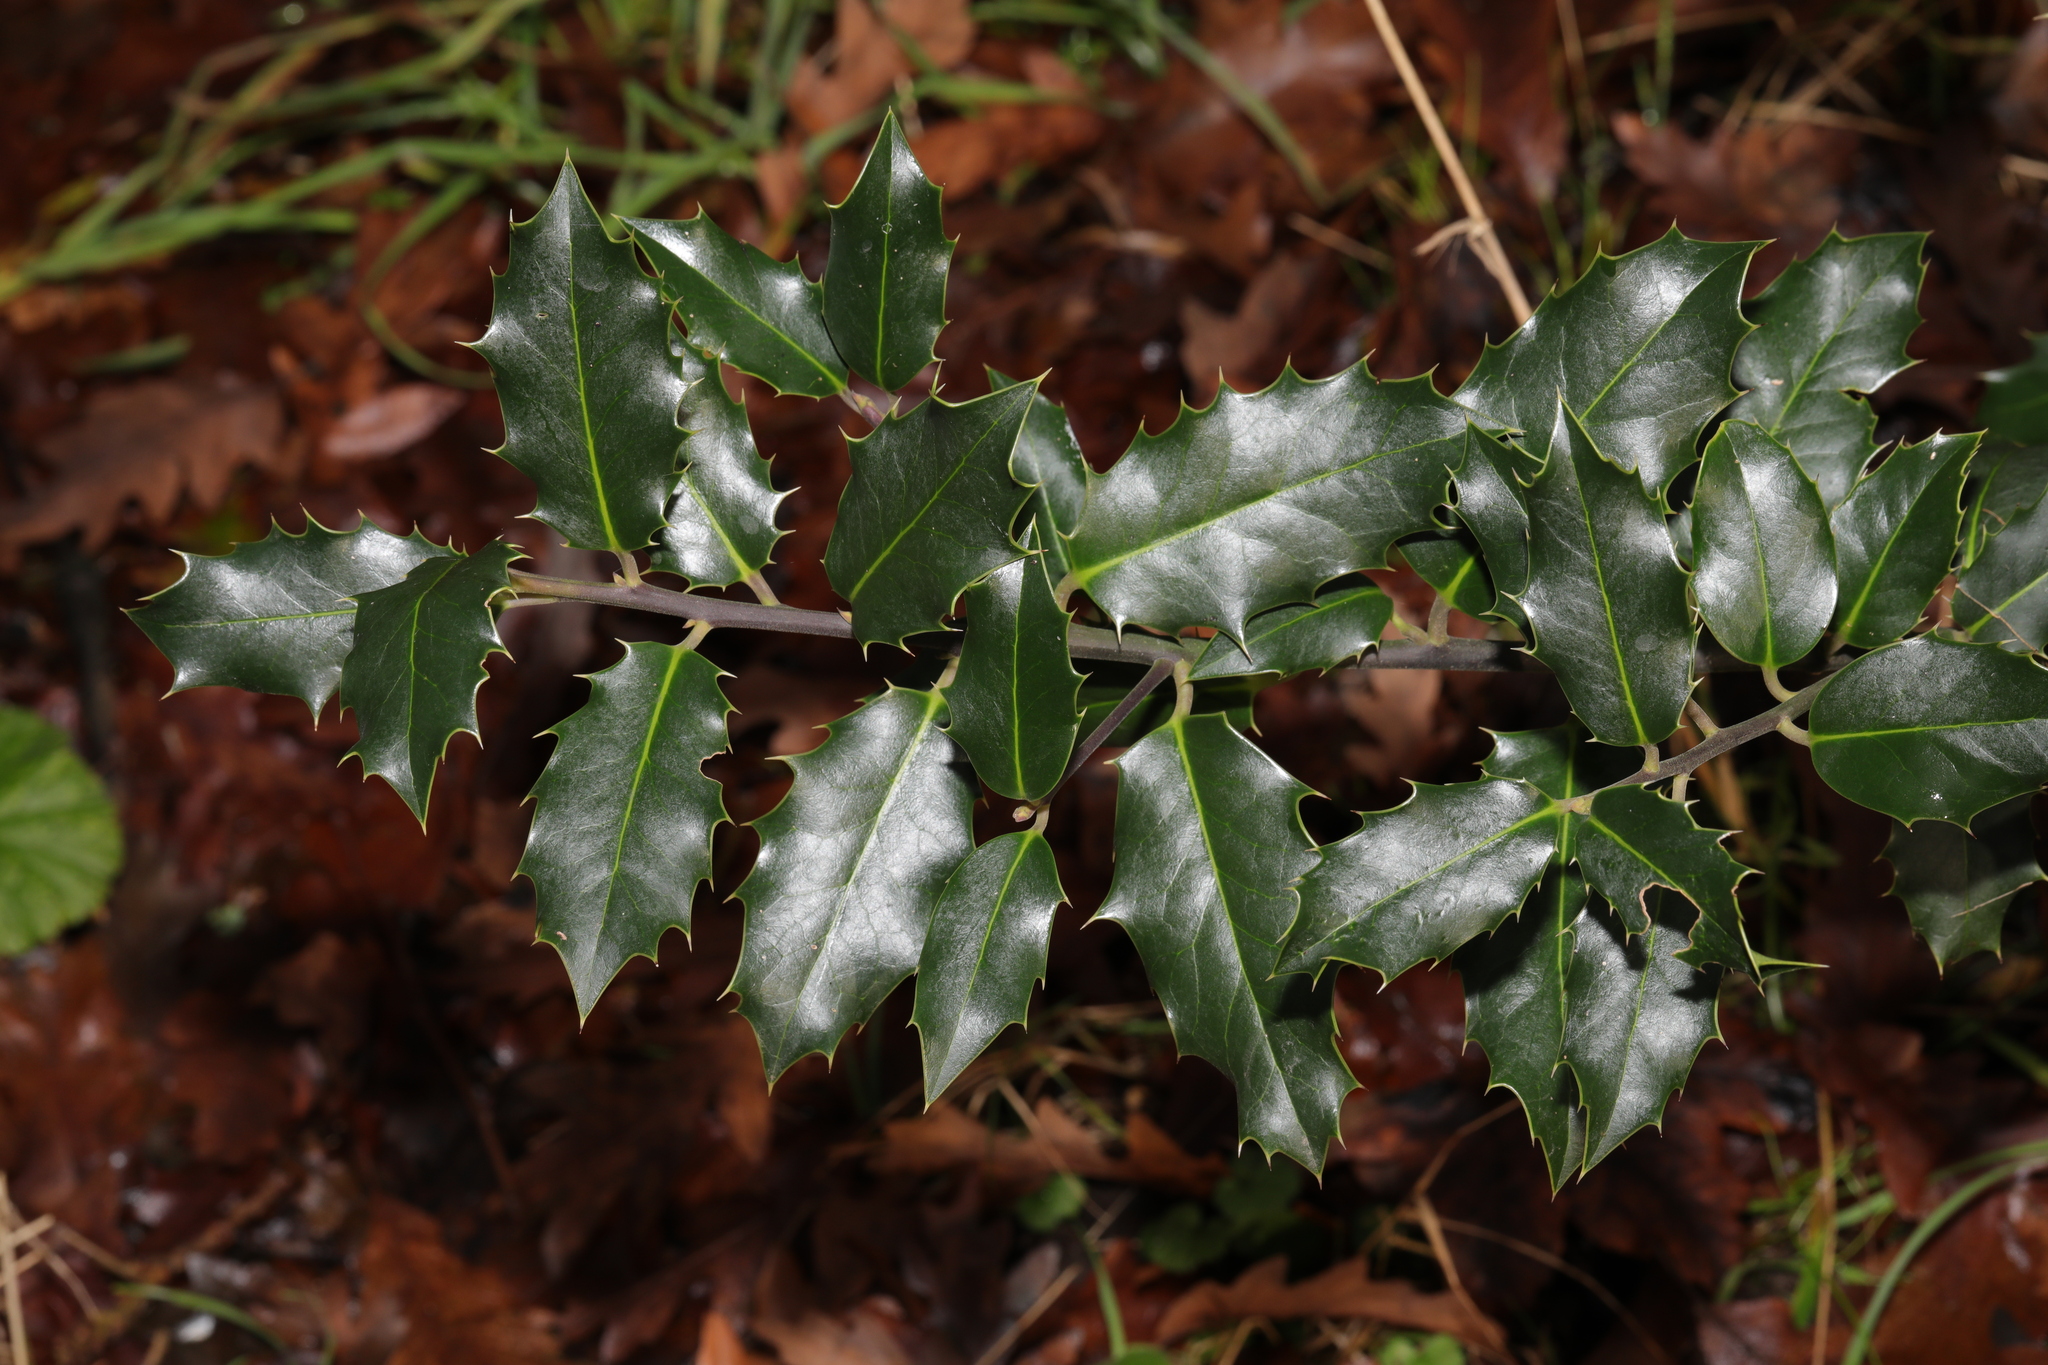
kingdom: Plantae
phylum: Tracheophyta
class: Magnoliopsida
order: Aquifoliales
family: Aquifoliaceae
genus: Ilex
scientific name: Ilex aquifolium
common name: English holly
